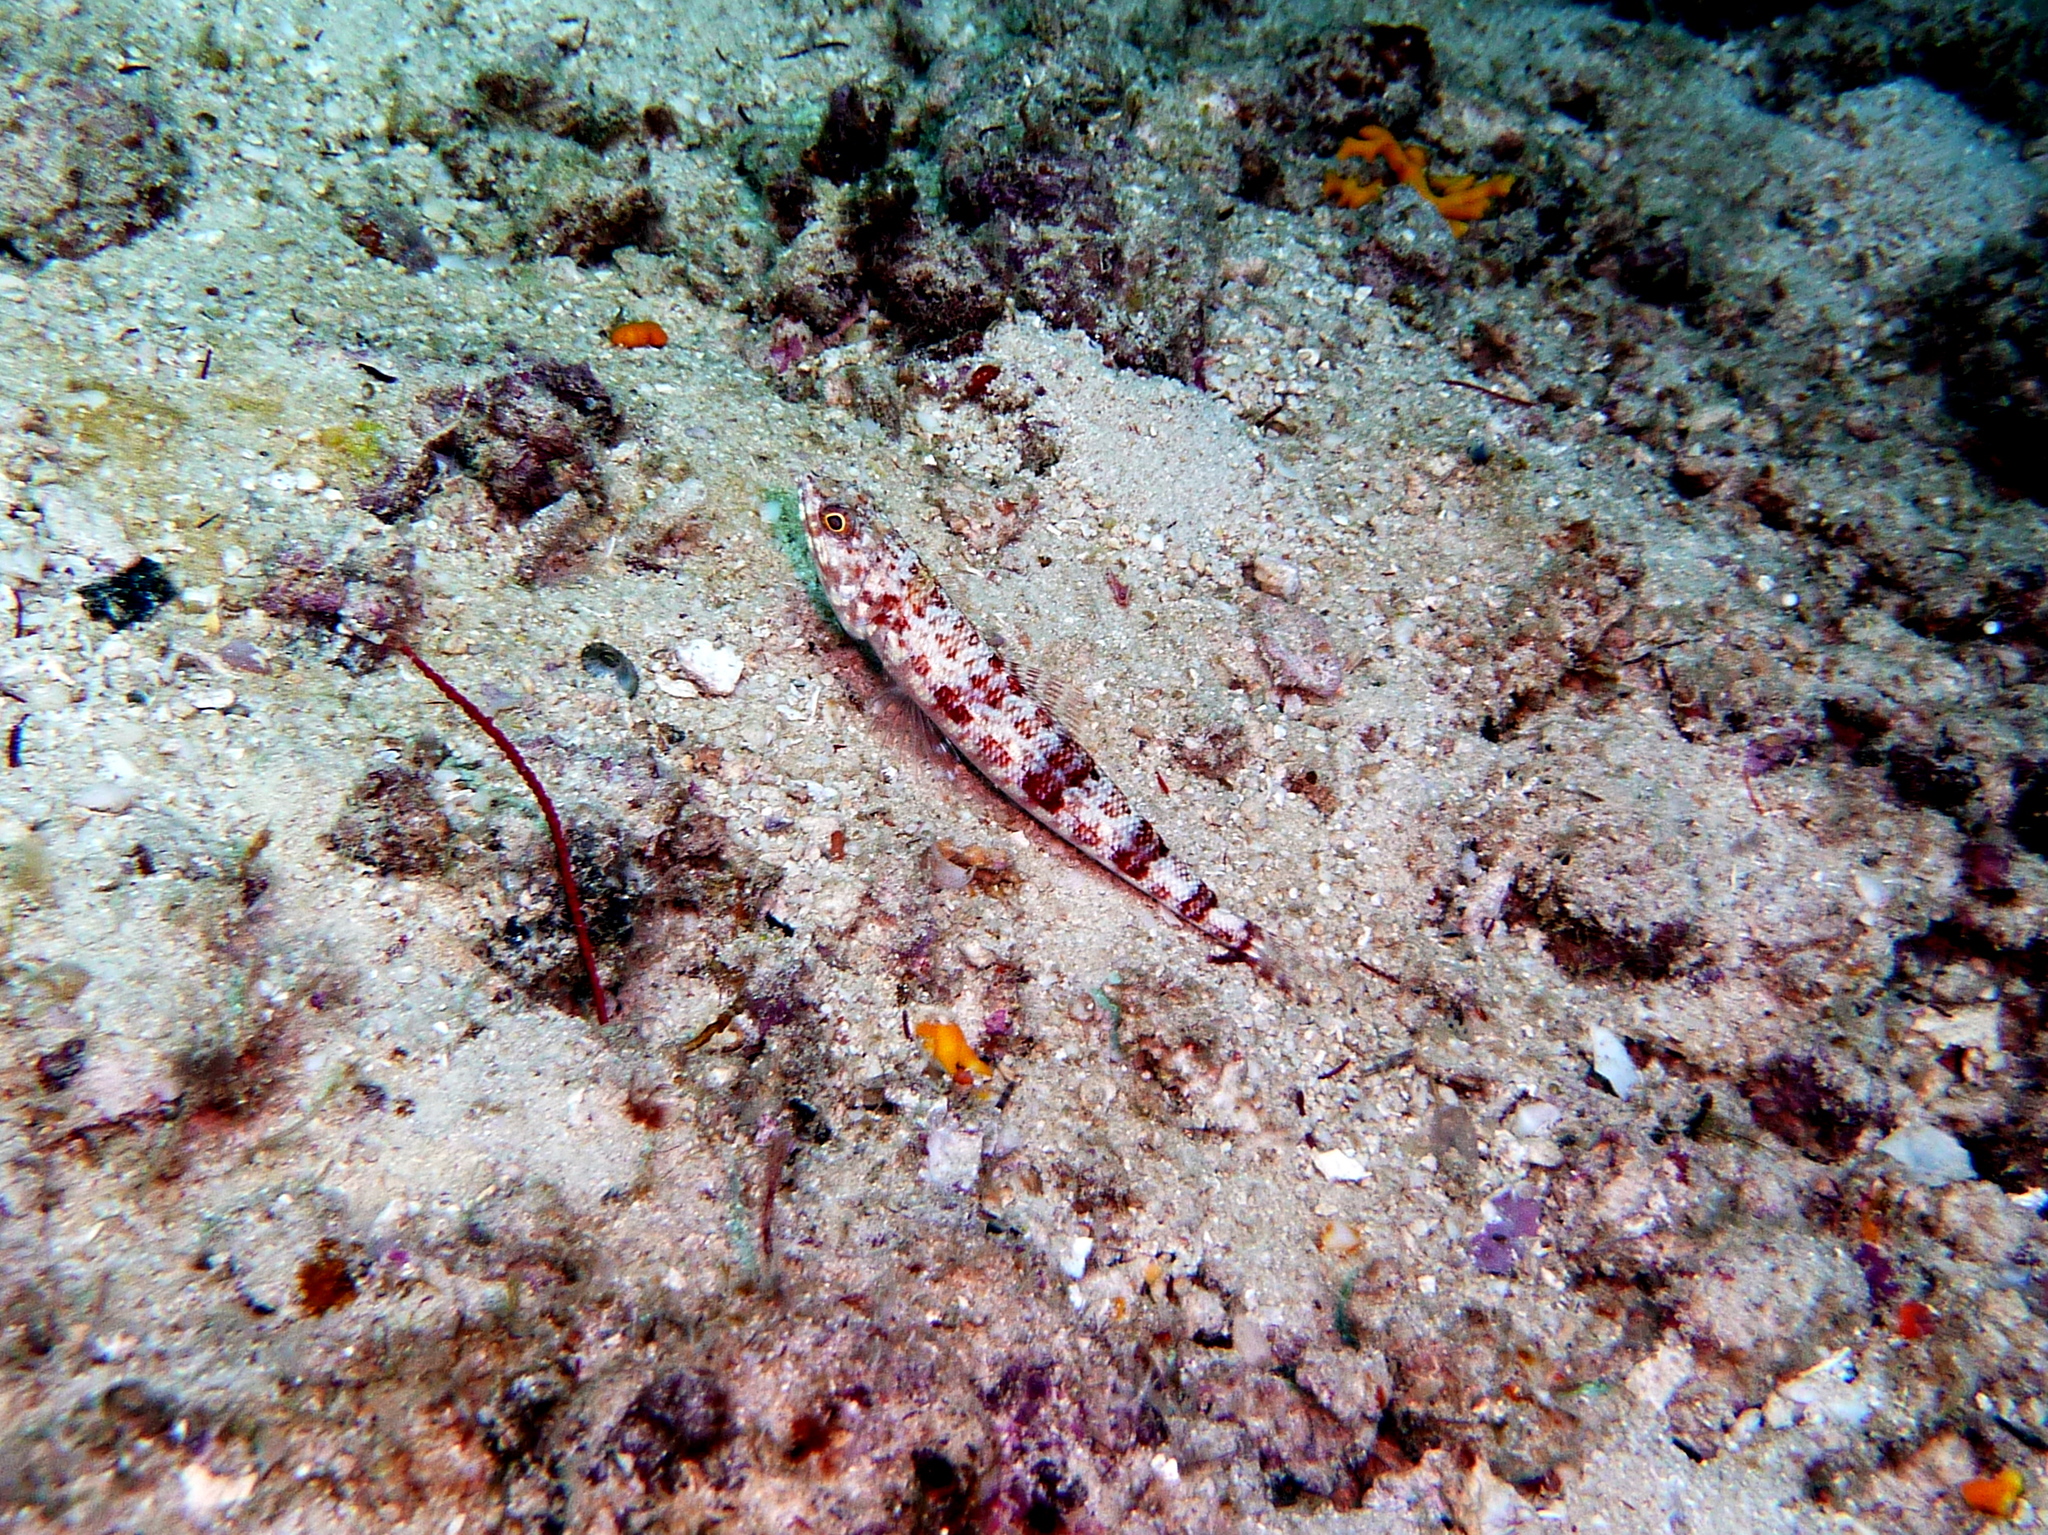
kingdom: Animalia
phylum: Chordata
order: Aulopiformes
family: Synodontidae
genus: Synodus
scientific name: Synodus variegatus
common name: Variegated lizardfish
